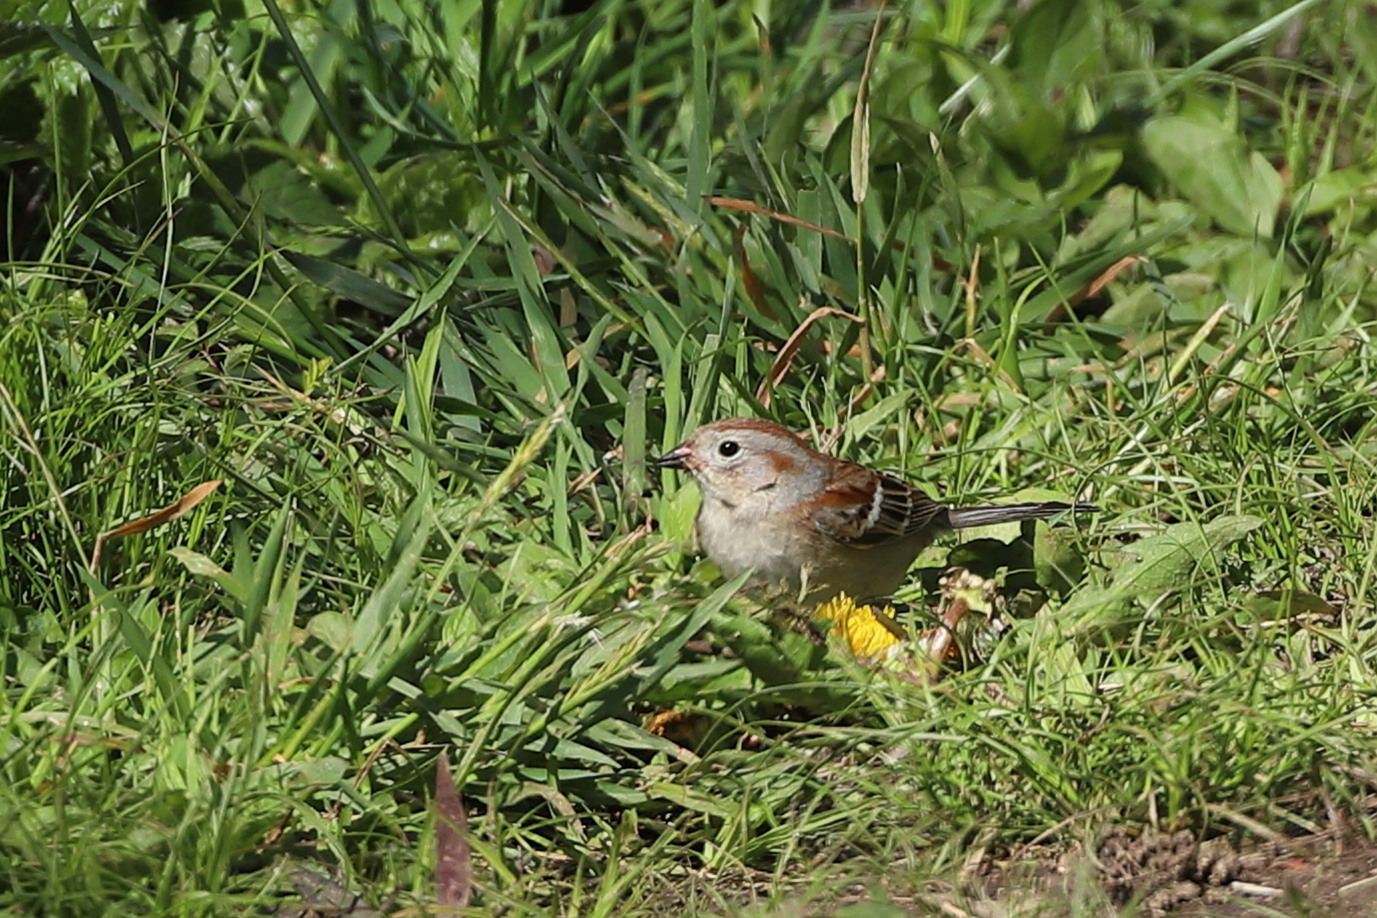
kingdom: Animalia
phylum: Chordata
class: Aves
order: Passeriformes
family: Passerellidae
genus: Spizella
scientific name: Spizella pusilla
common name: Field sparrow
